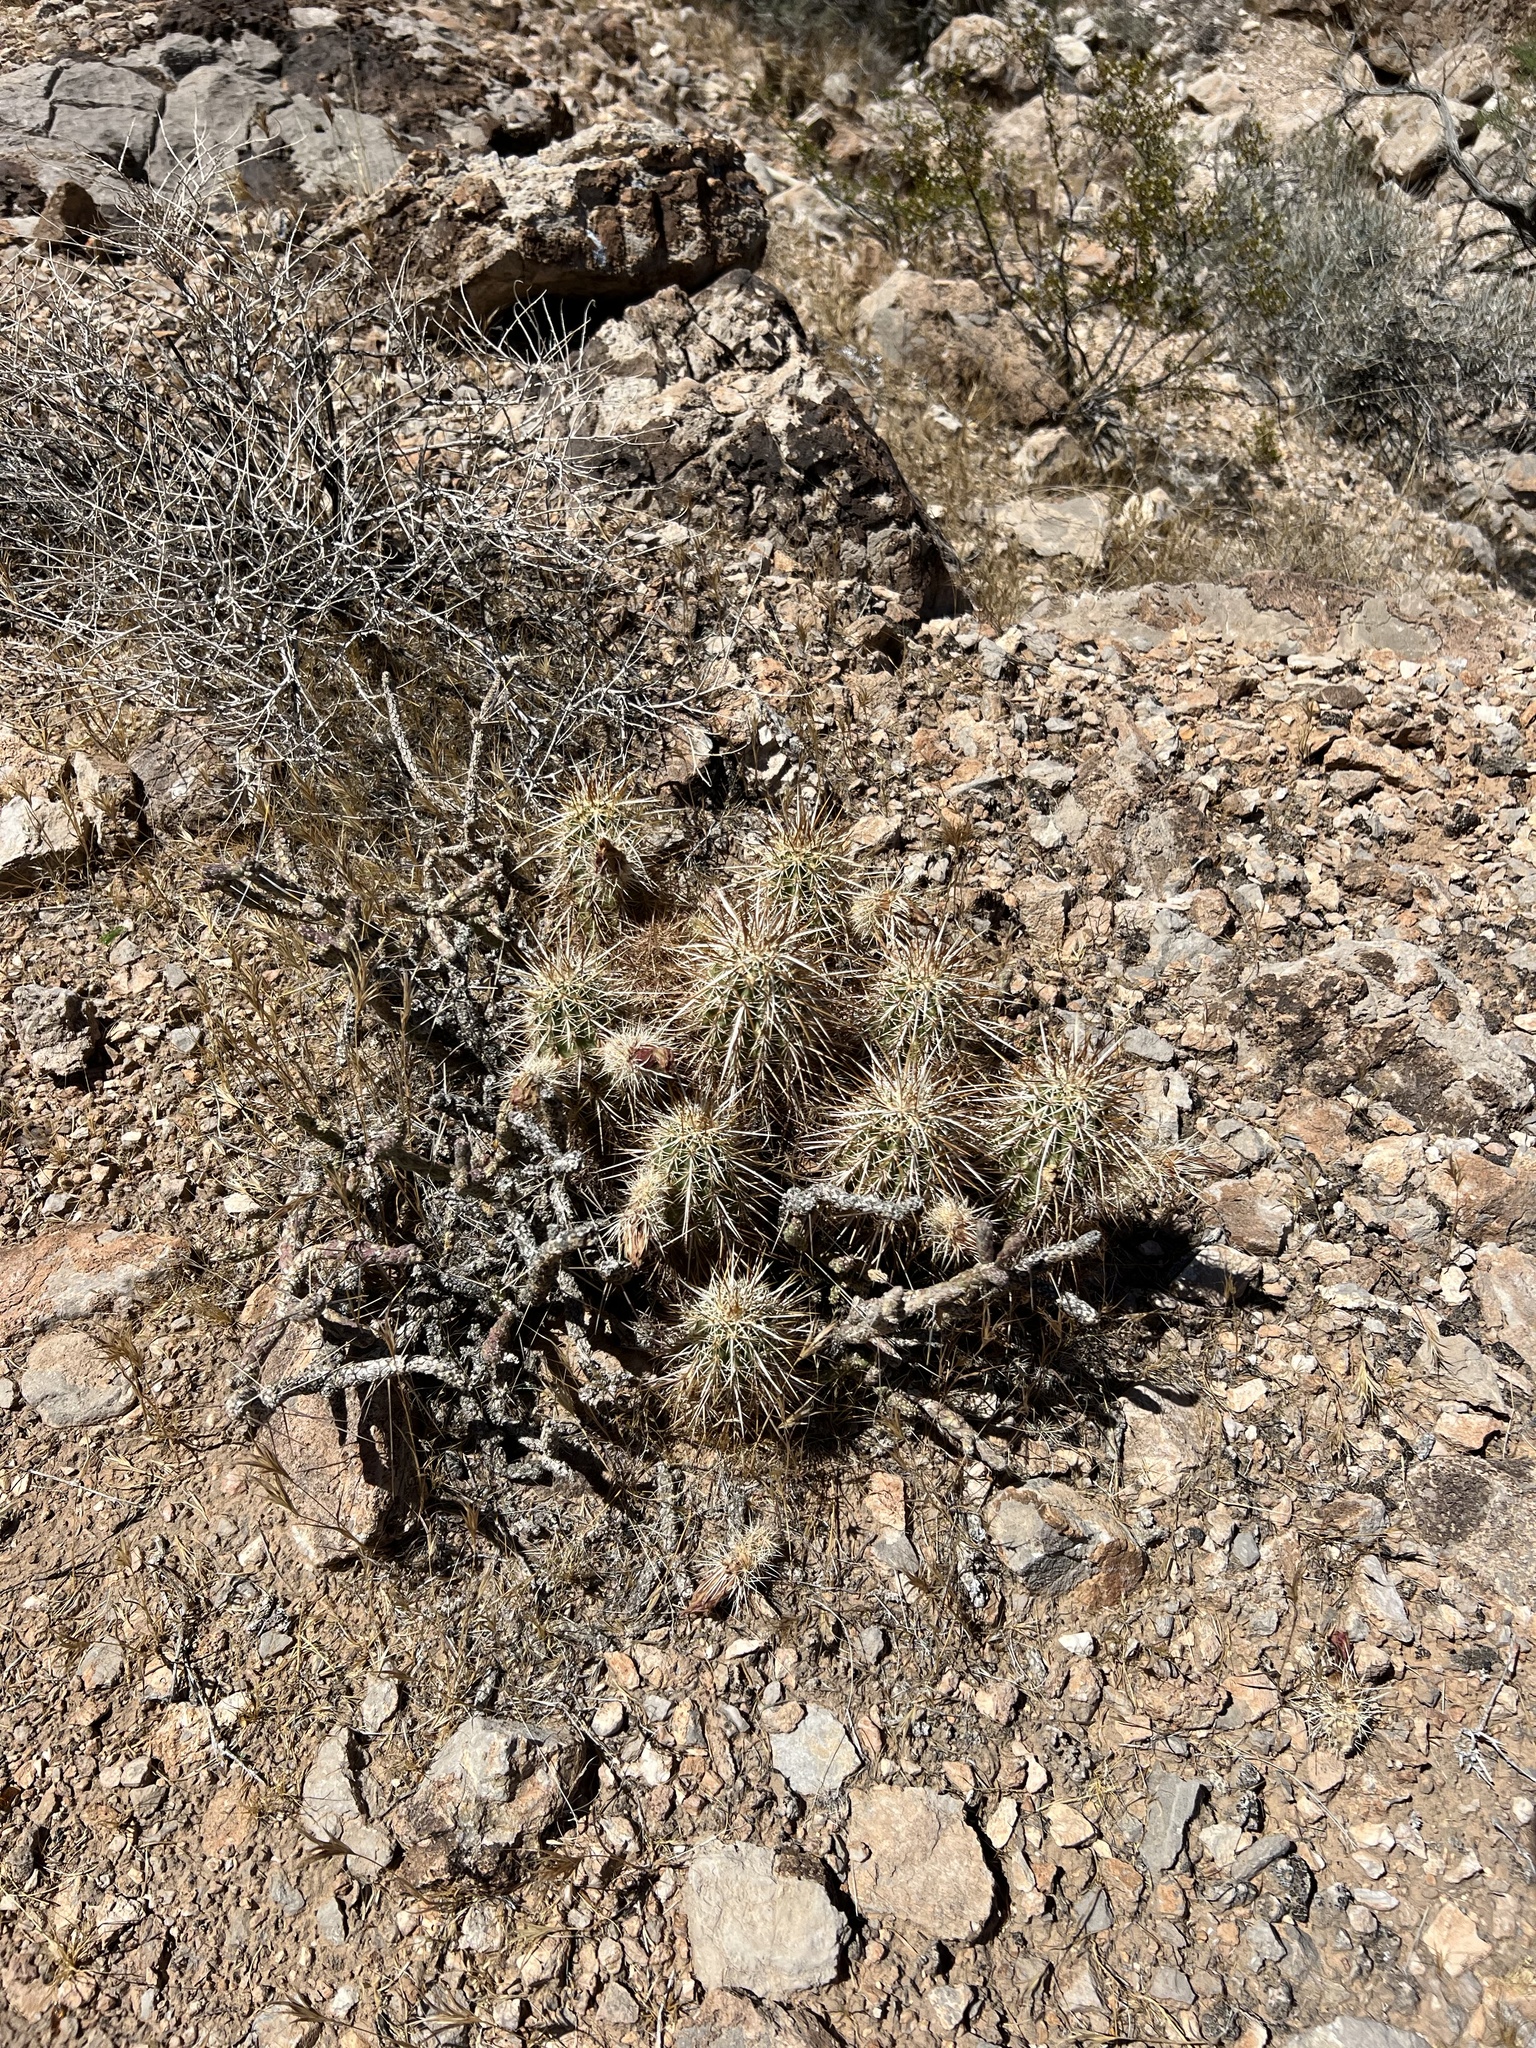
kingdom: Plantae
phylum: Tracheophyta
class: Magnoliopsida
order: Caryophyllales
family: Cactaceae
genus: Echinocereus
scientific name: Echinocereus engelmannii
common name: Engelmann's hedgehog cactus
